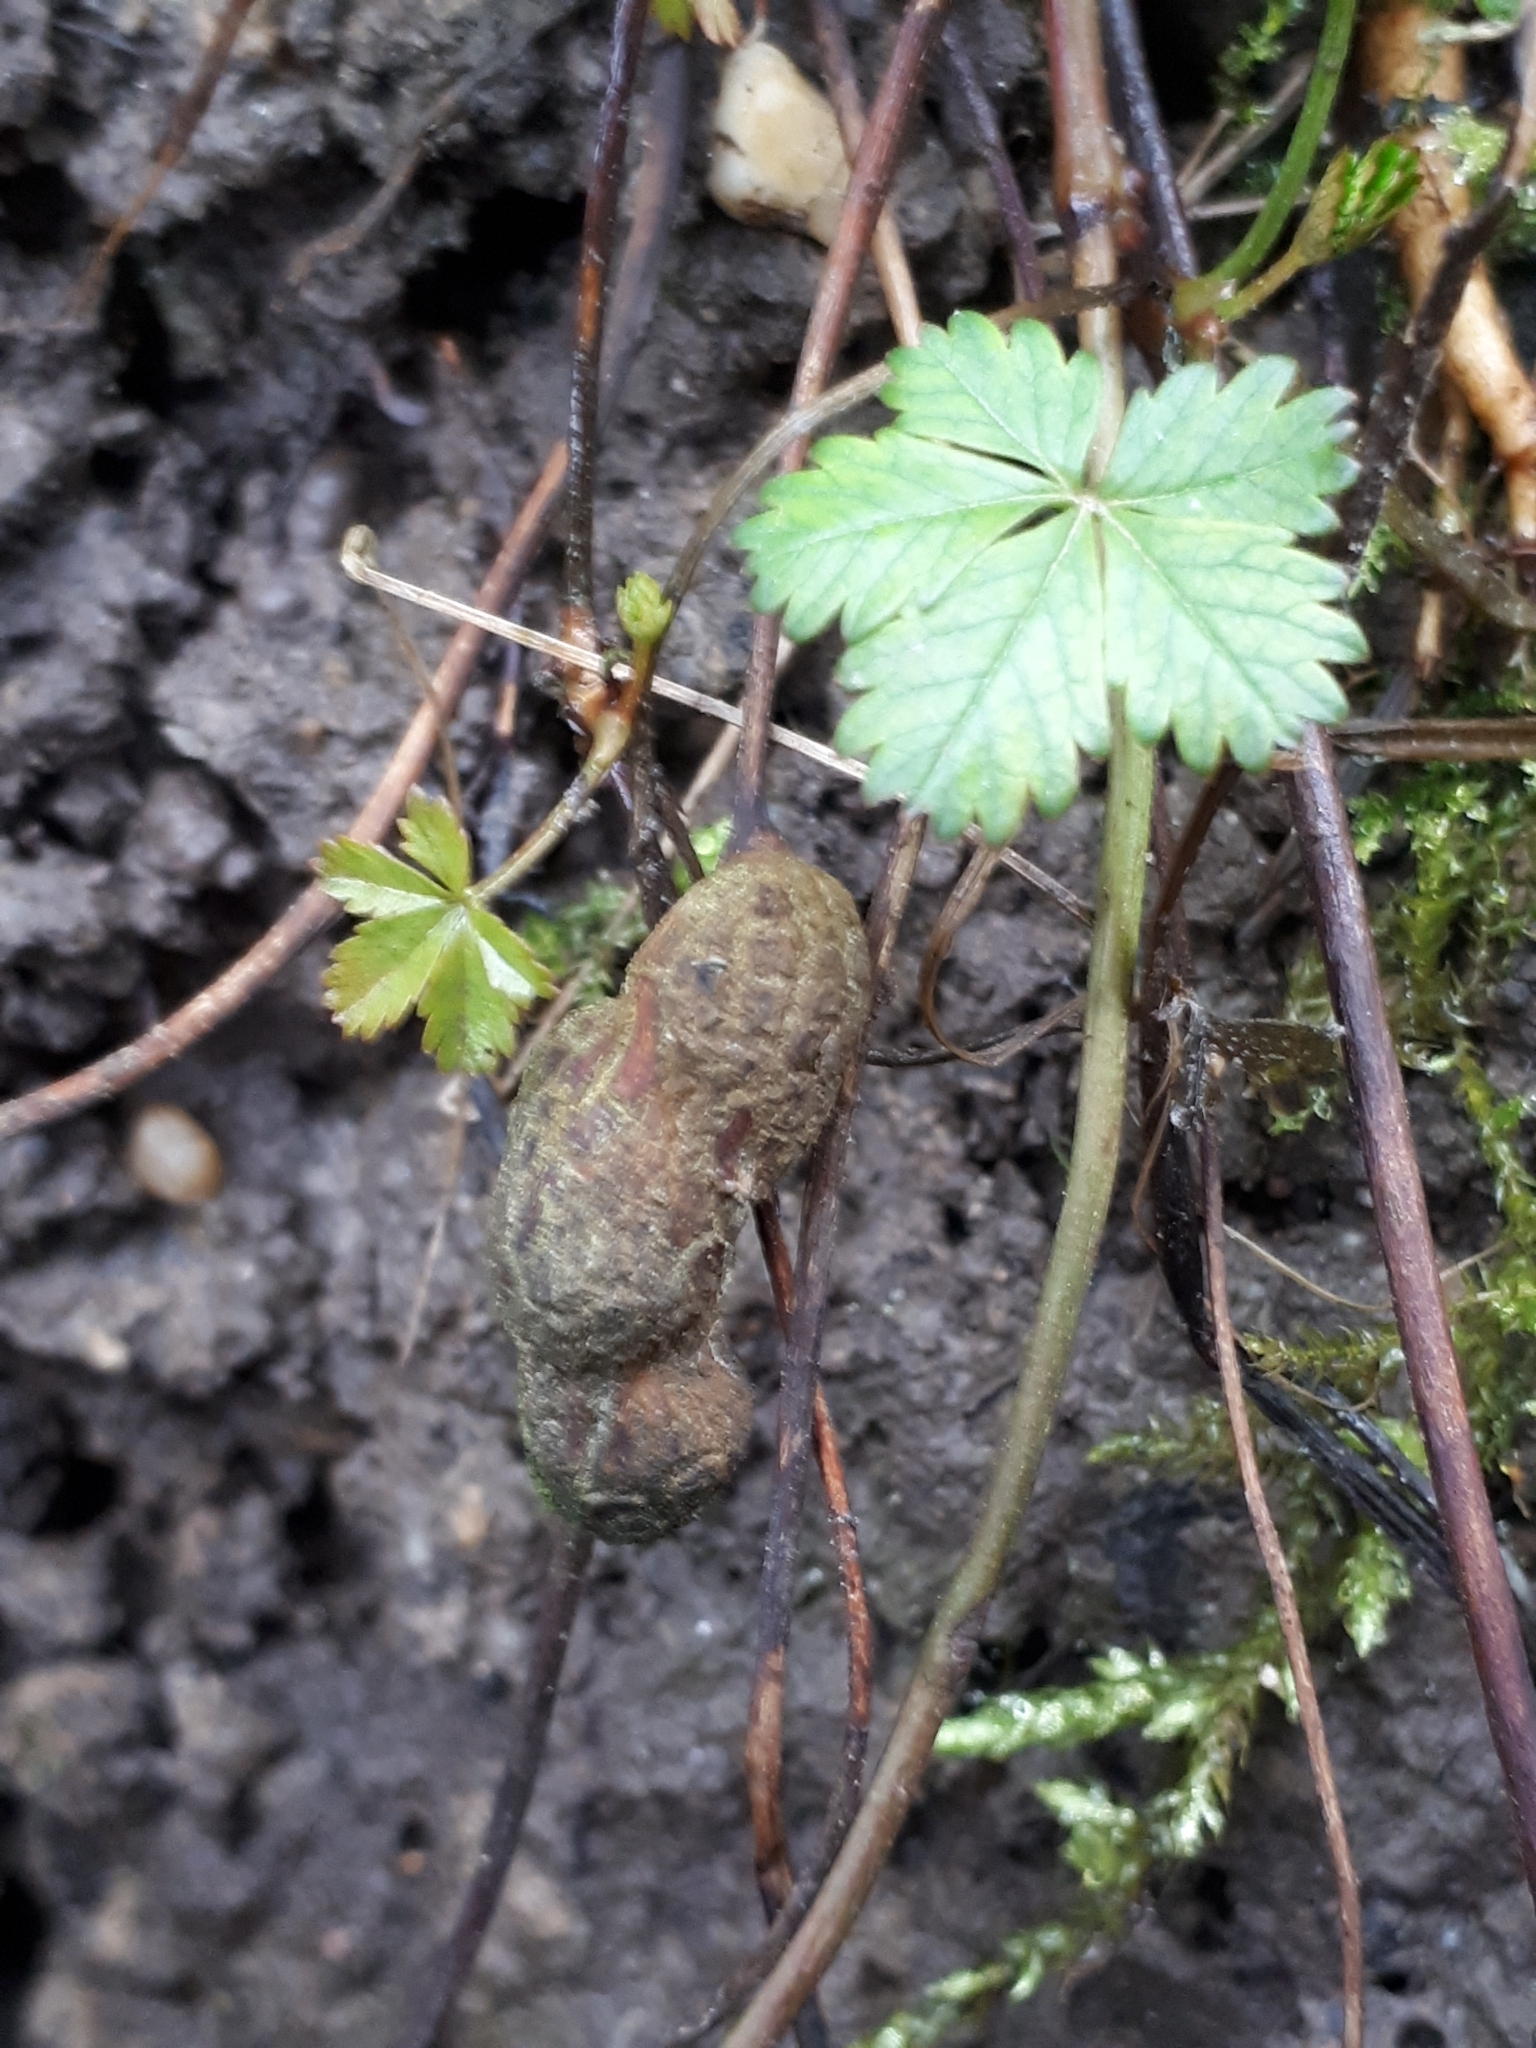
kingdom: Animalia
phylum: Arthropoda
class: Insecta
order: Hymenoptera
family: Cynipidae
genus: Xestophanes
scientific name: Xestophanes potentillae
